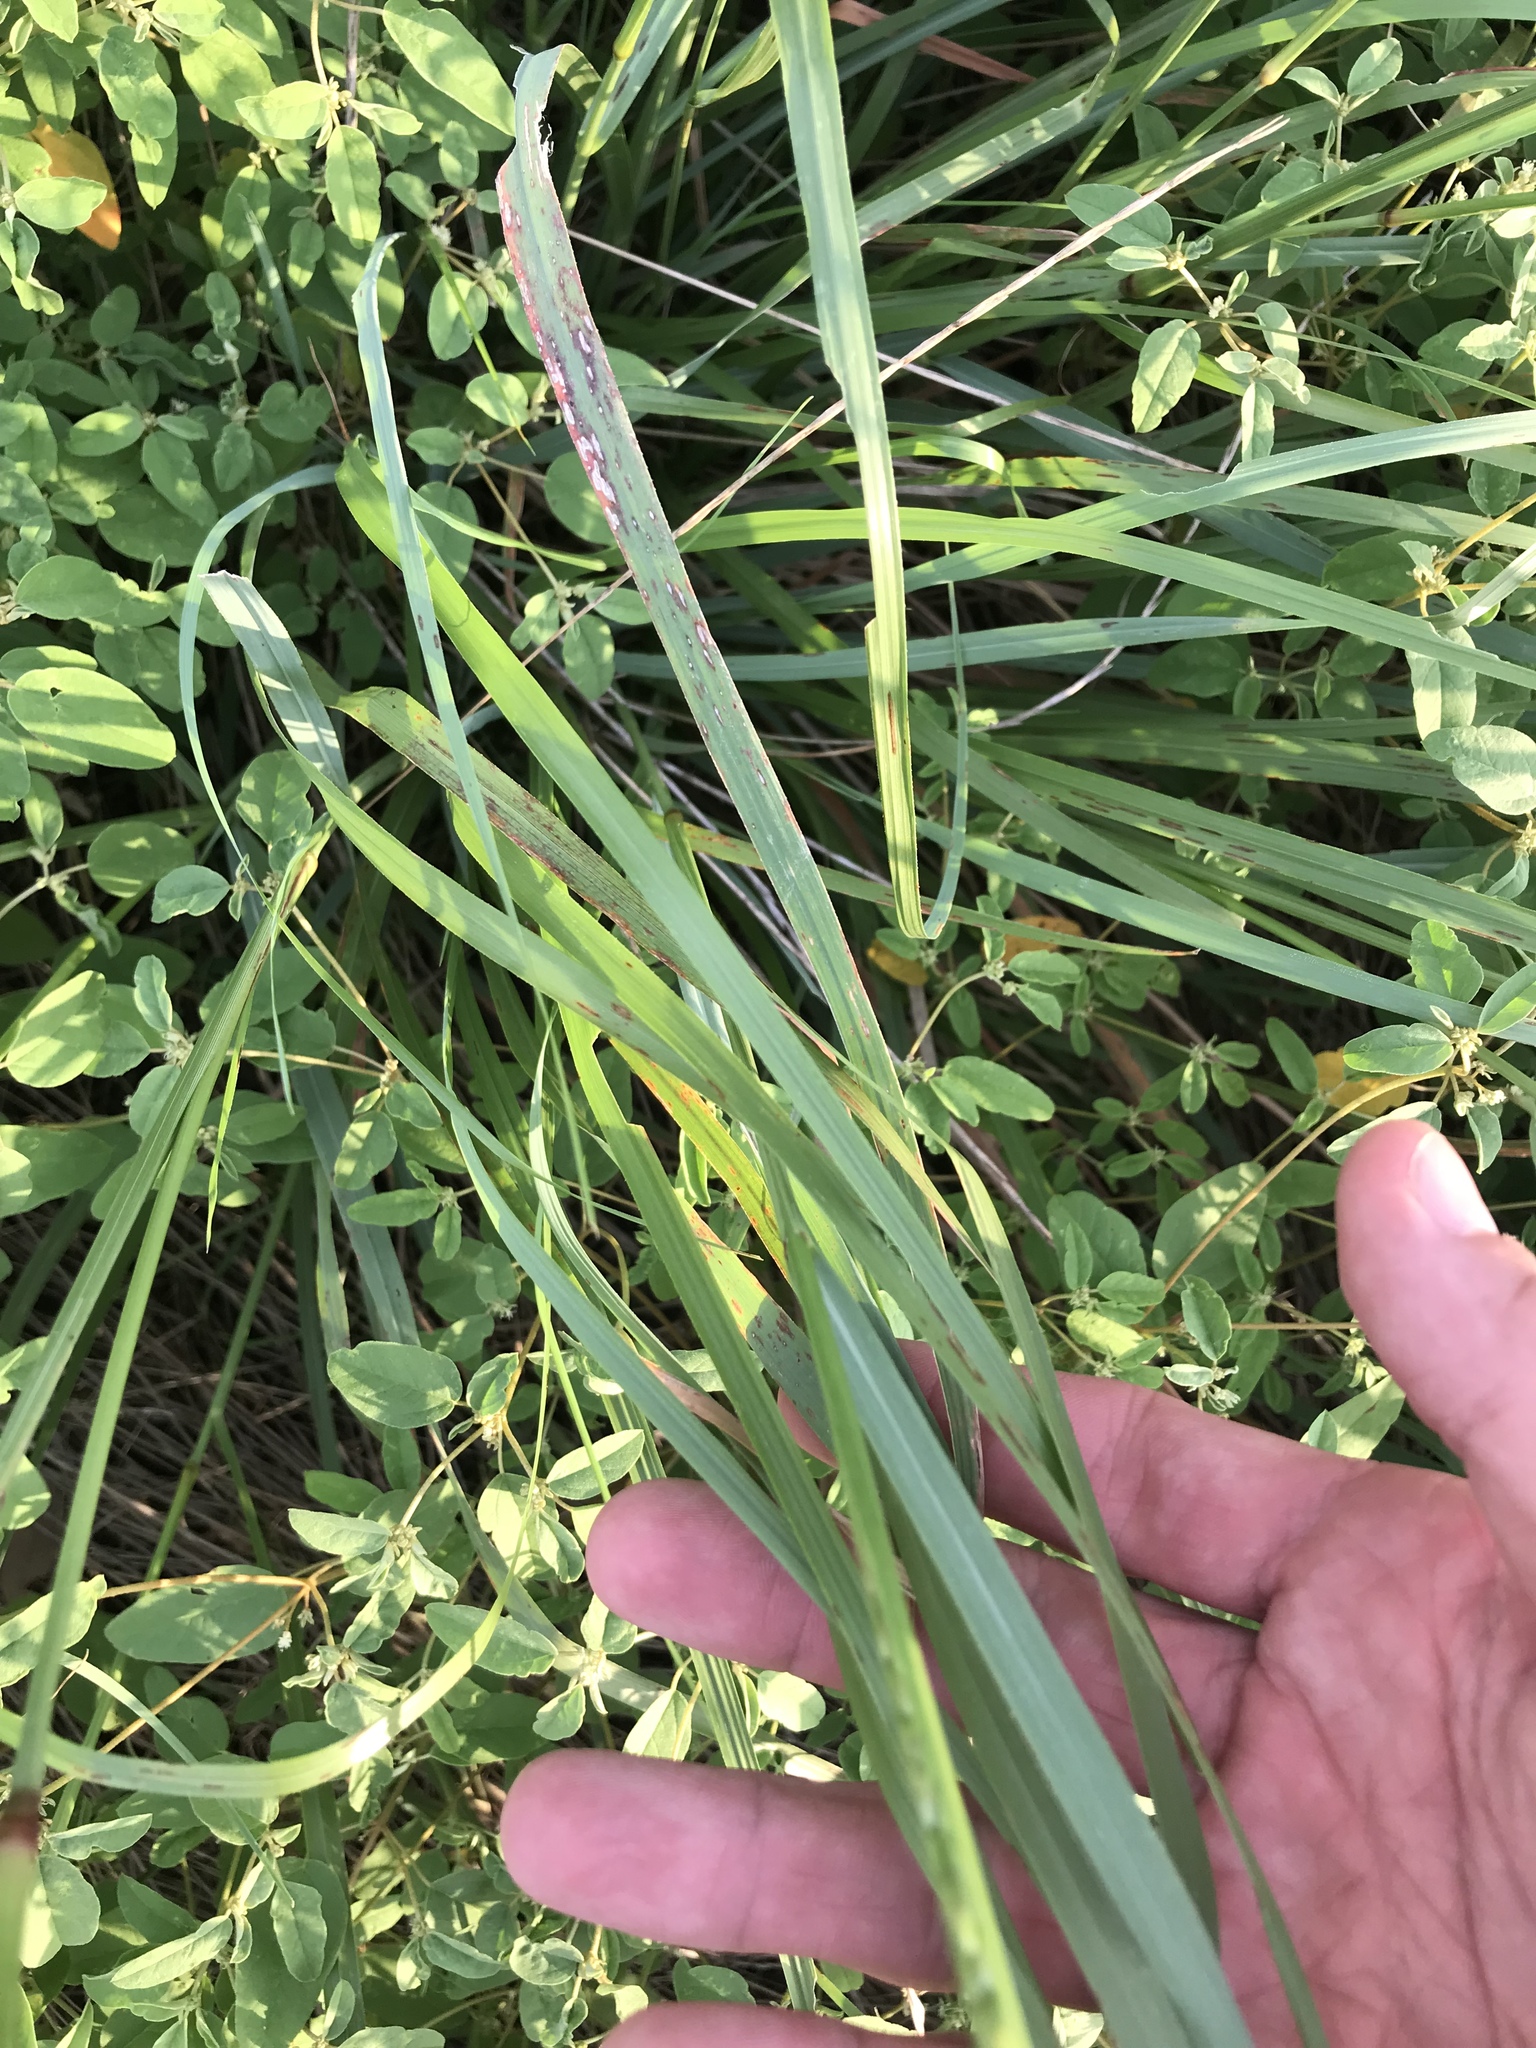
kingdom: Plantae
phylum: Tracheophyta
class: Liliopsida
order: Poales
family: Poaceae
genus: Tridens
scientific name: Tridens albescens
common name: White tridens
